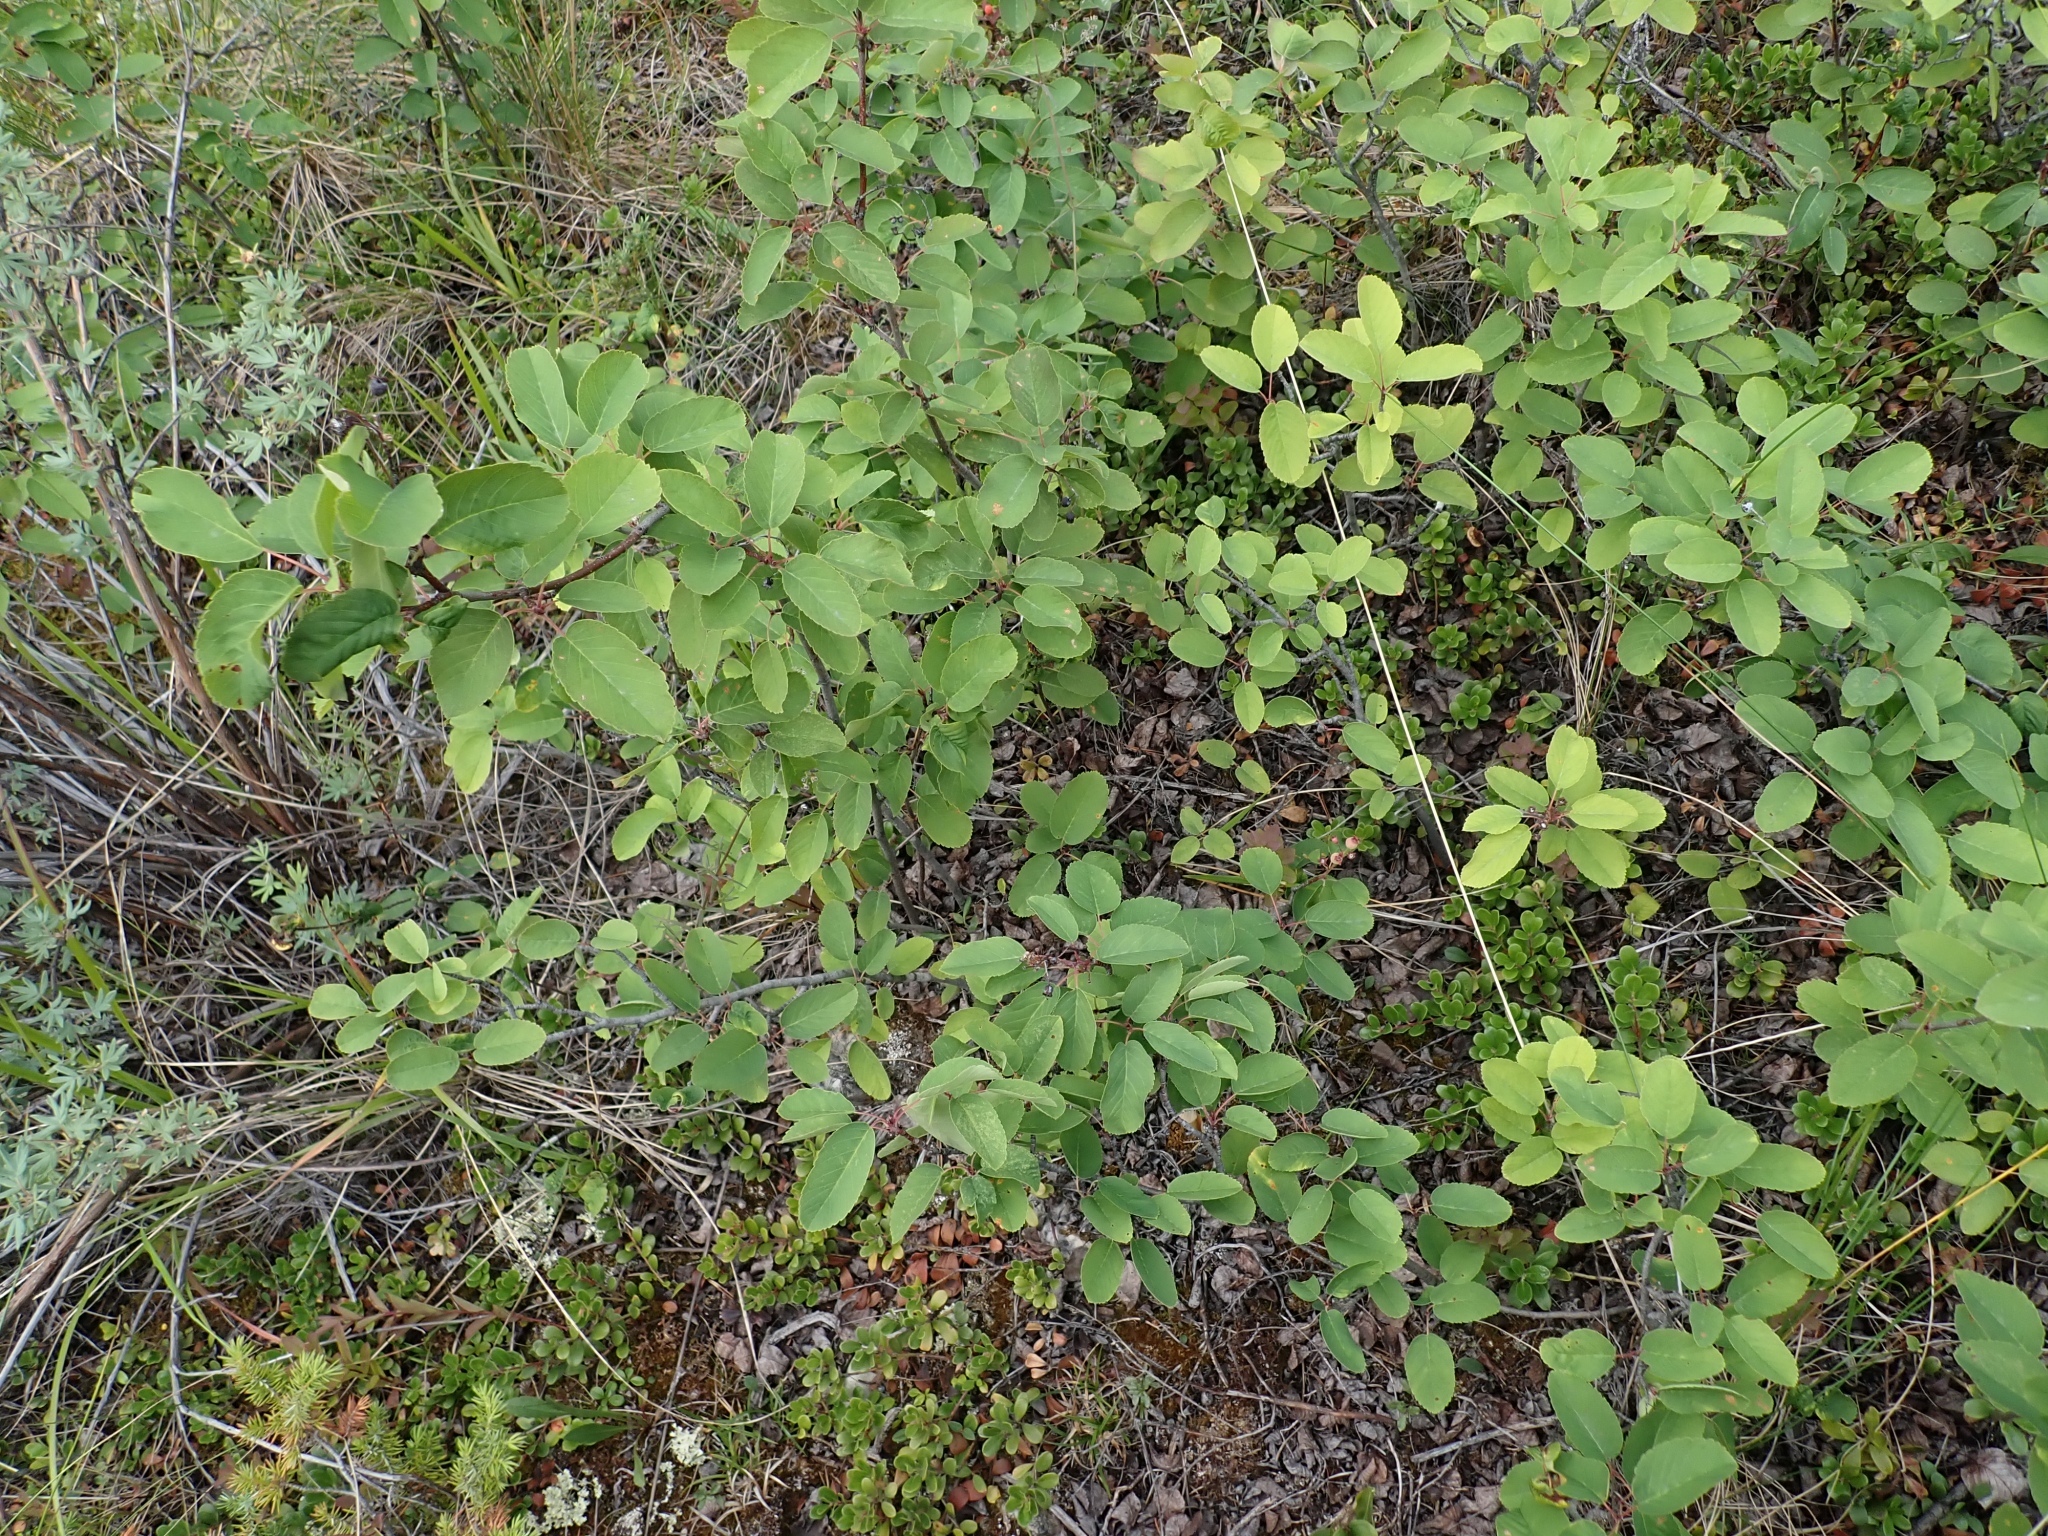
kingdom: Plantae
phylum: Tracheophyta
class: Magnoliopsida
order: Rosales
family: Rosaceae
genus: Amelanchier
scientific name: Amelanchier alnifolia
